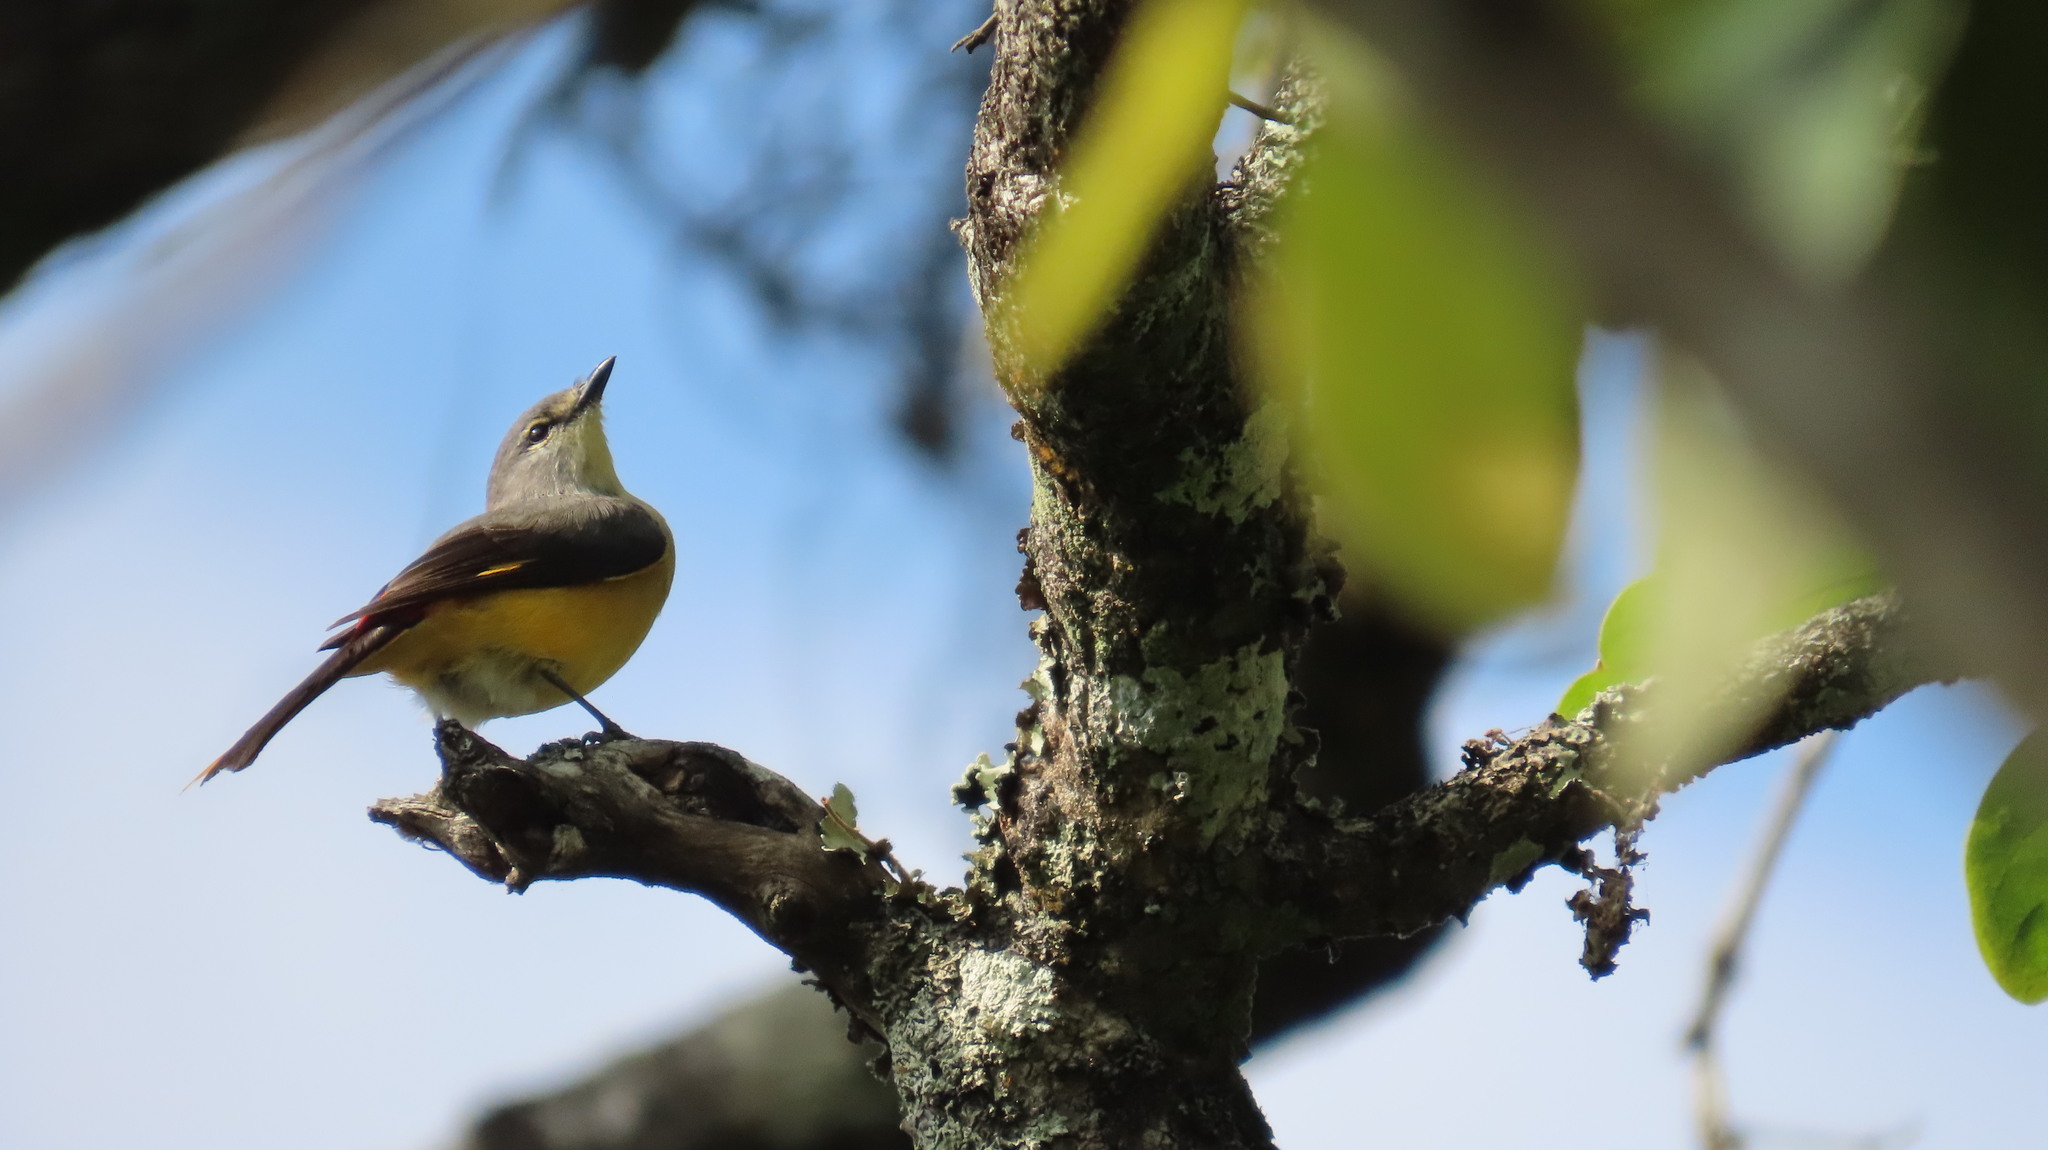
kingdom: Animalia
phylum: Chordata
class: Aves
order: Passeriformes
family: Campephagidae
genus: Pericrocotus
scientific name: Pericrocotus cinnamomeus
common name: Small minivet
